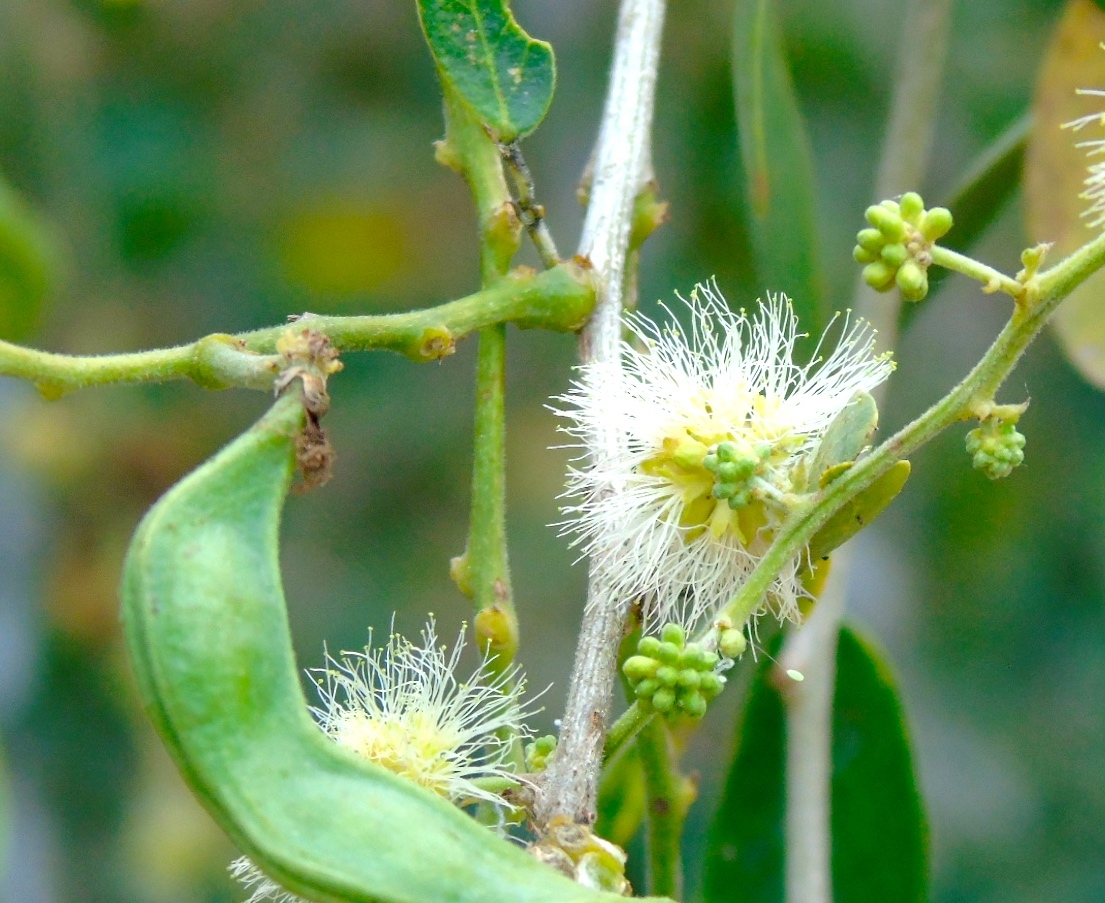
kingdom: Plantae
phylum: Tracheophyta
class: Magnoliopsida
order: Fabales
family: Fabaceae
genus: Pithecellobium
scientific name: Pithecellobium dulce
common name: Monkeypod
